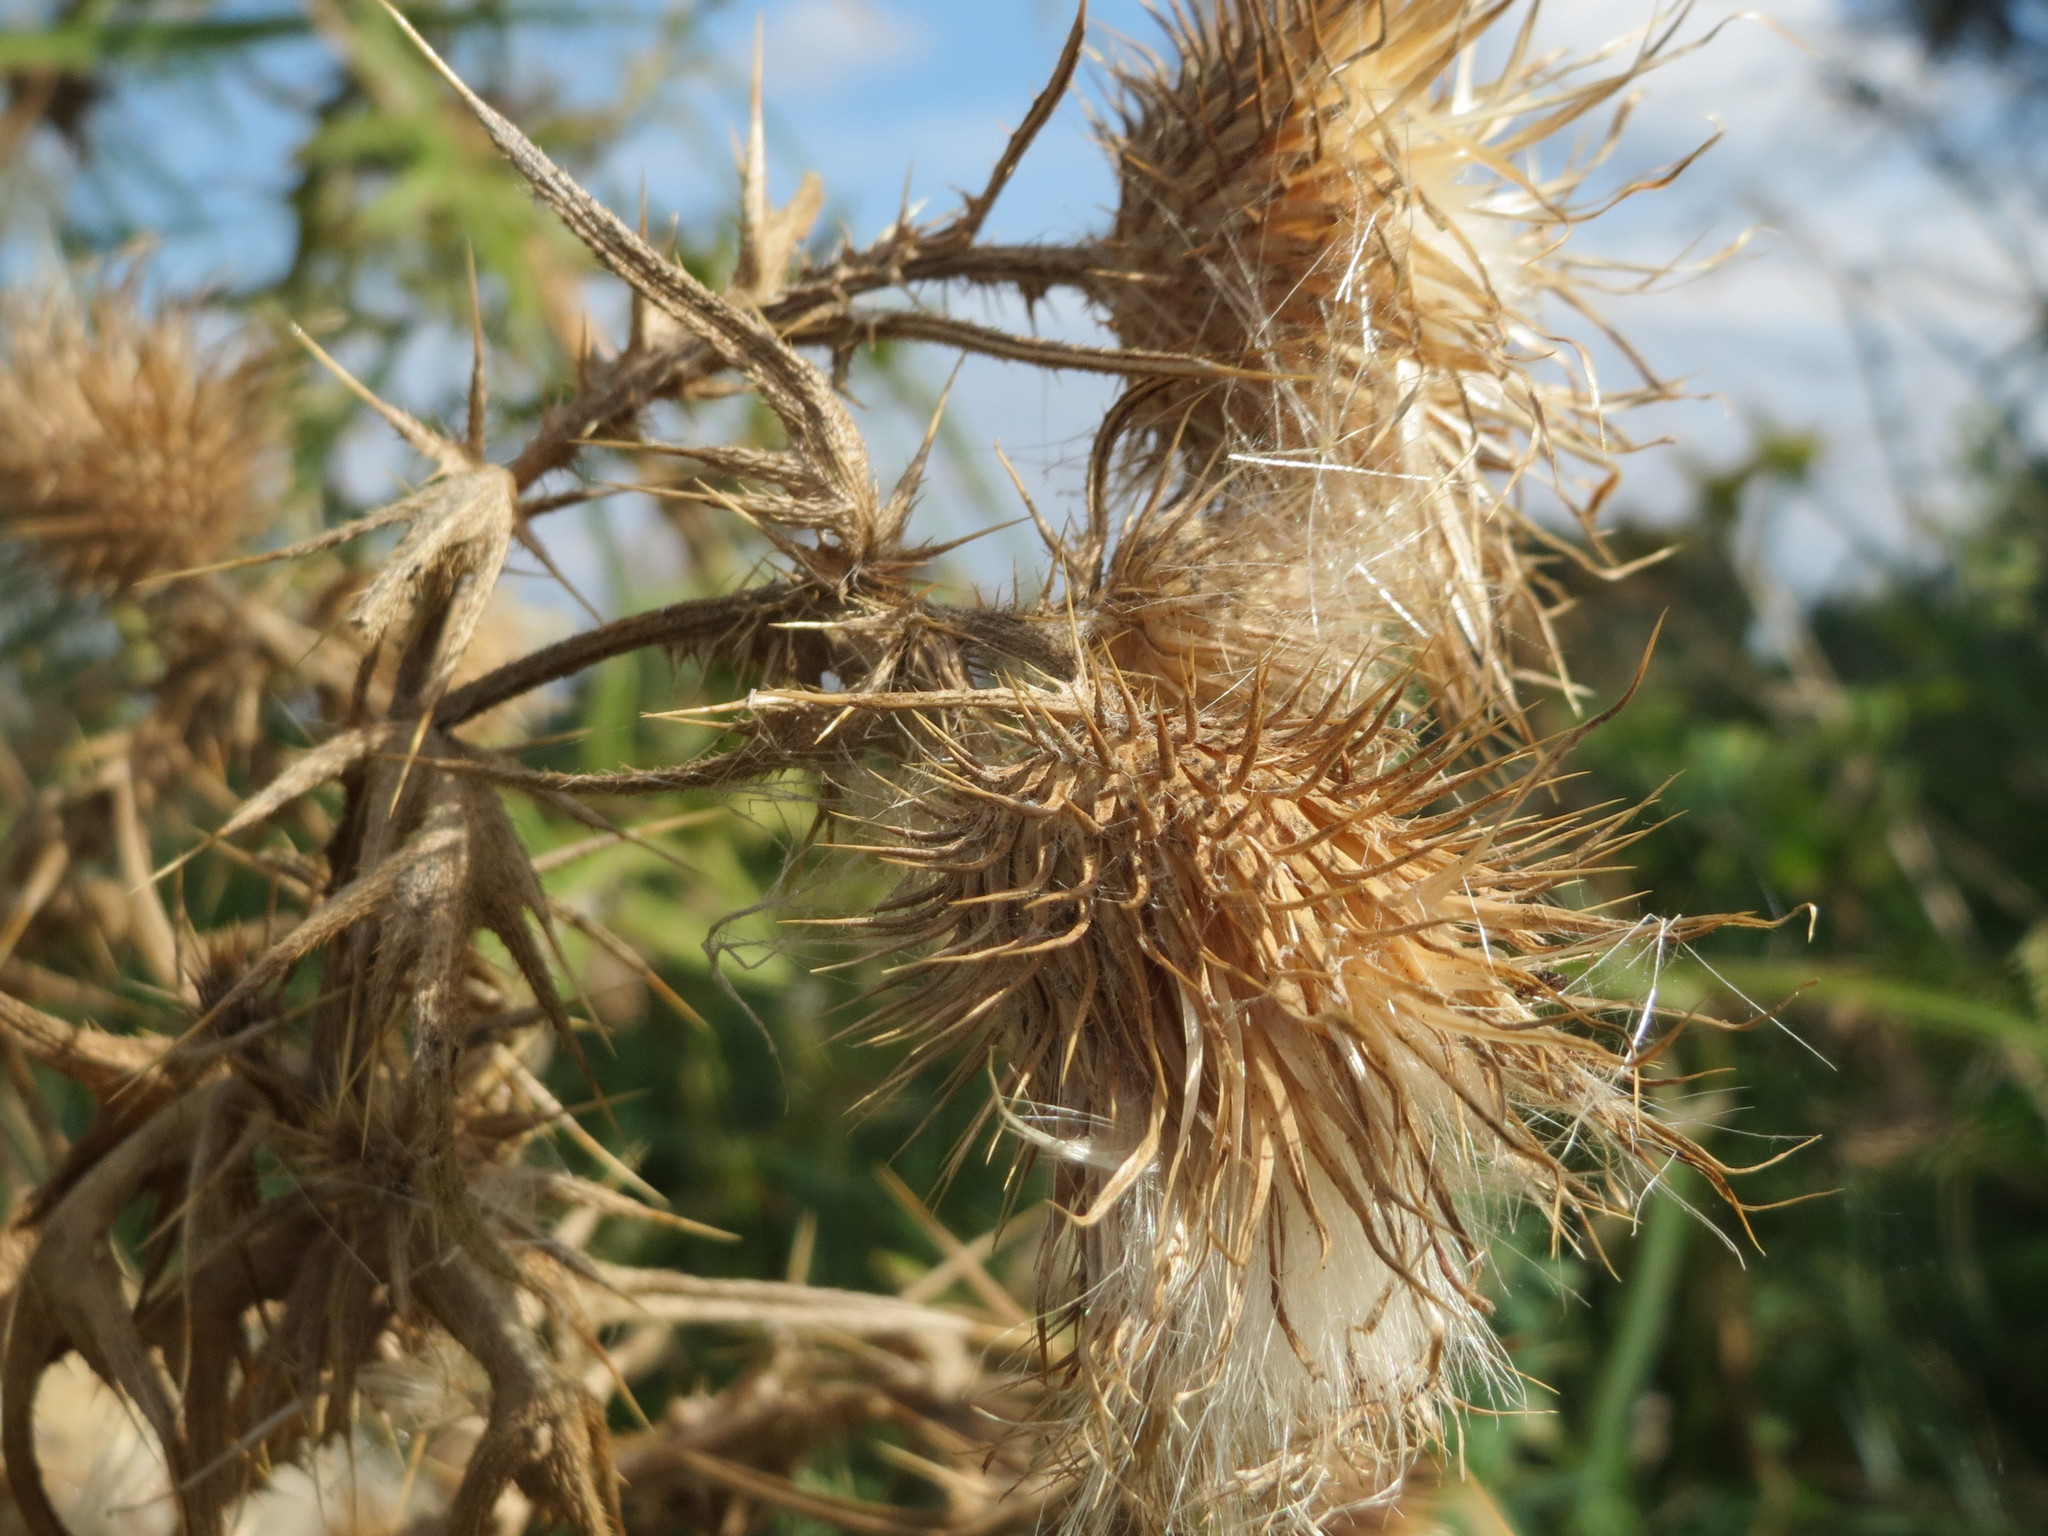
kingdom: Plantae
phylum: Tracheophyta
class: Magnoliopsida
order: Asterales
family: Asteraceae
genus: Cirsium
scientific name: Cirsium vulgare
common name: Bull thistle
